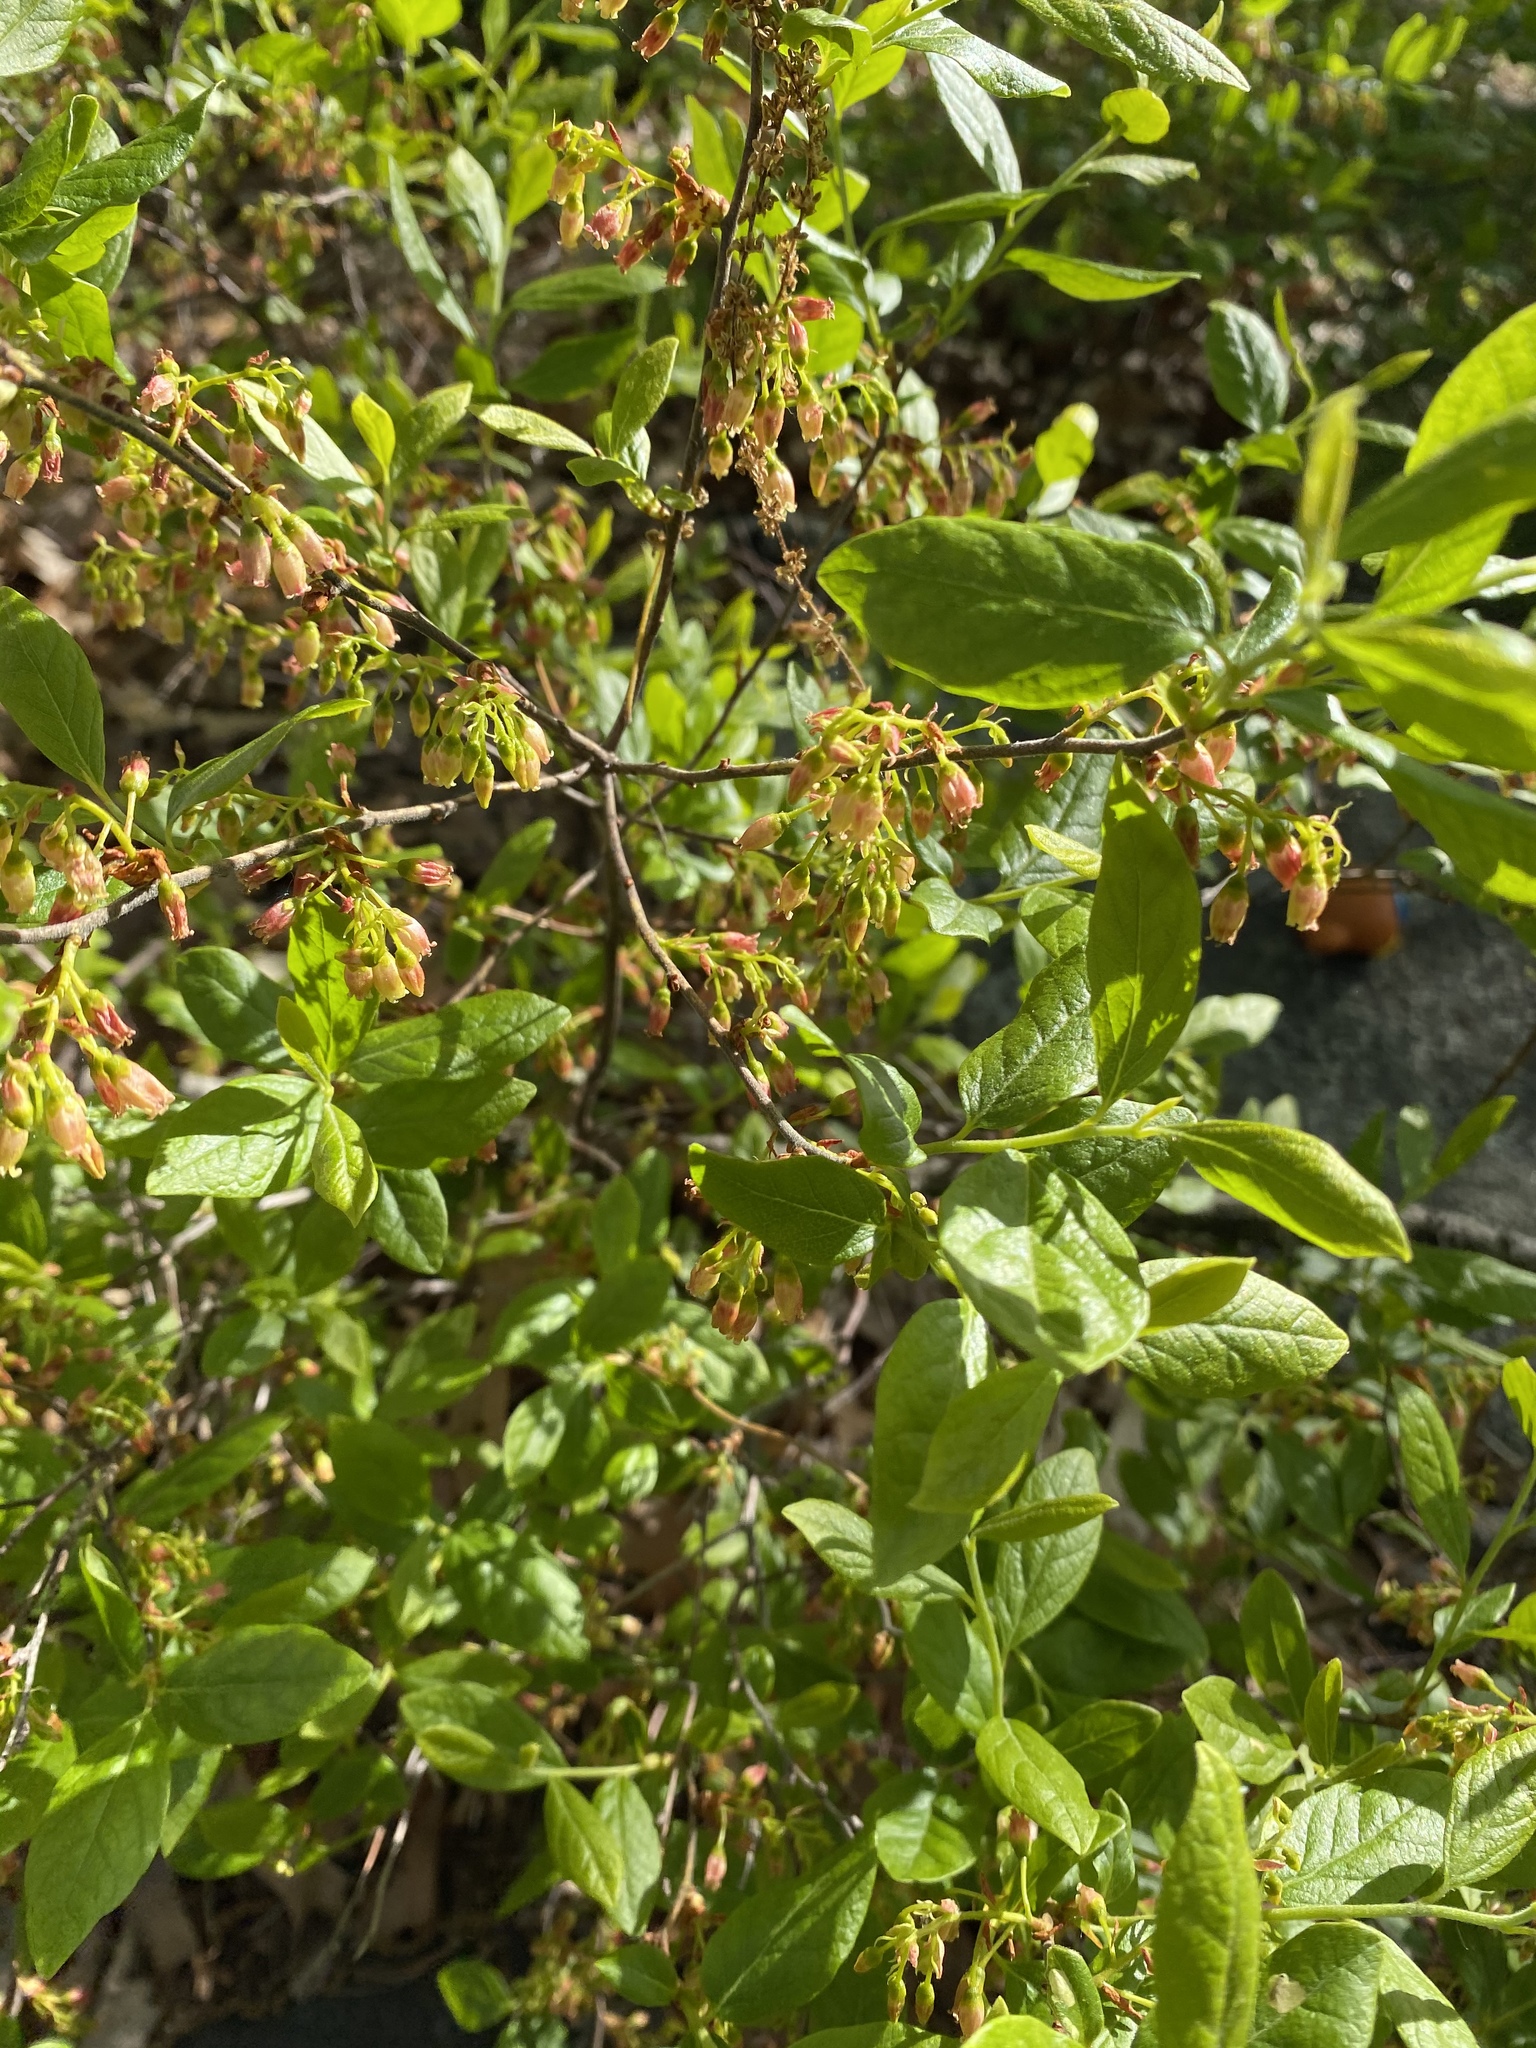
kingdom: Plantae
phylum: Tracheophyta
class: Magnoliopsida
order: Ericales
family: Ericaceae
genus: Gaylussacia
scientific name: Gaylussacia baccata
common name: Black huckleberry
